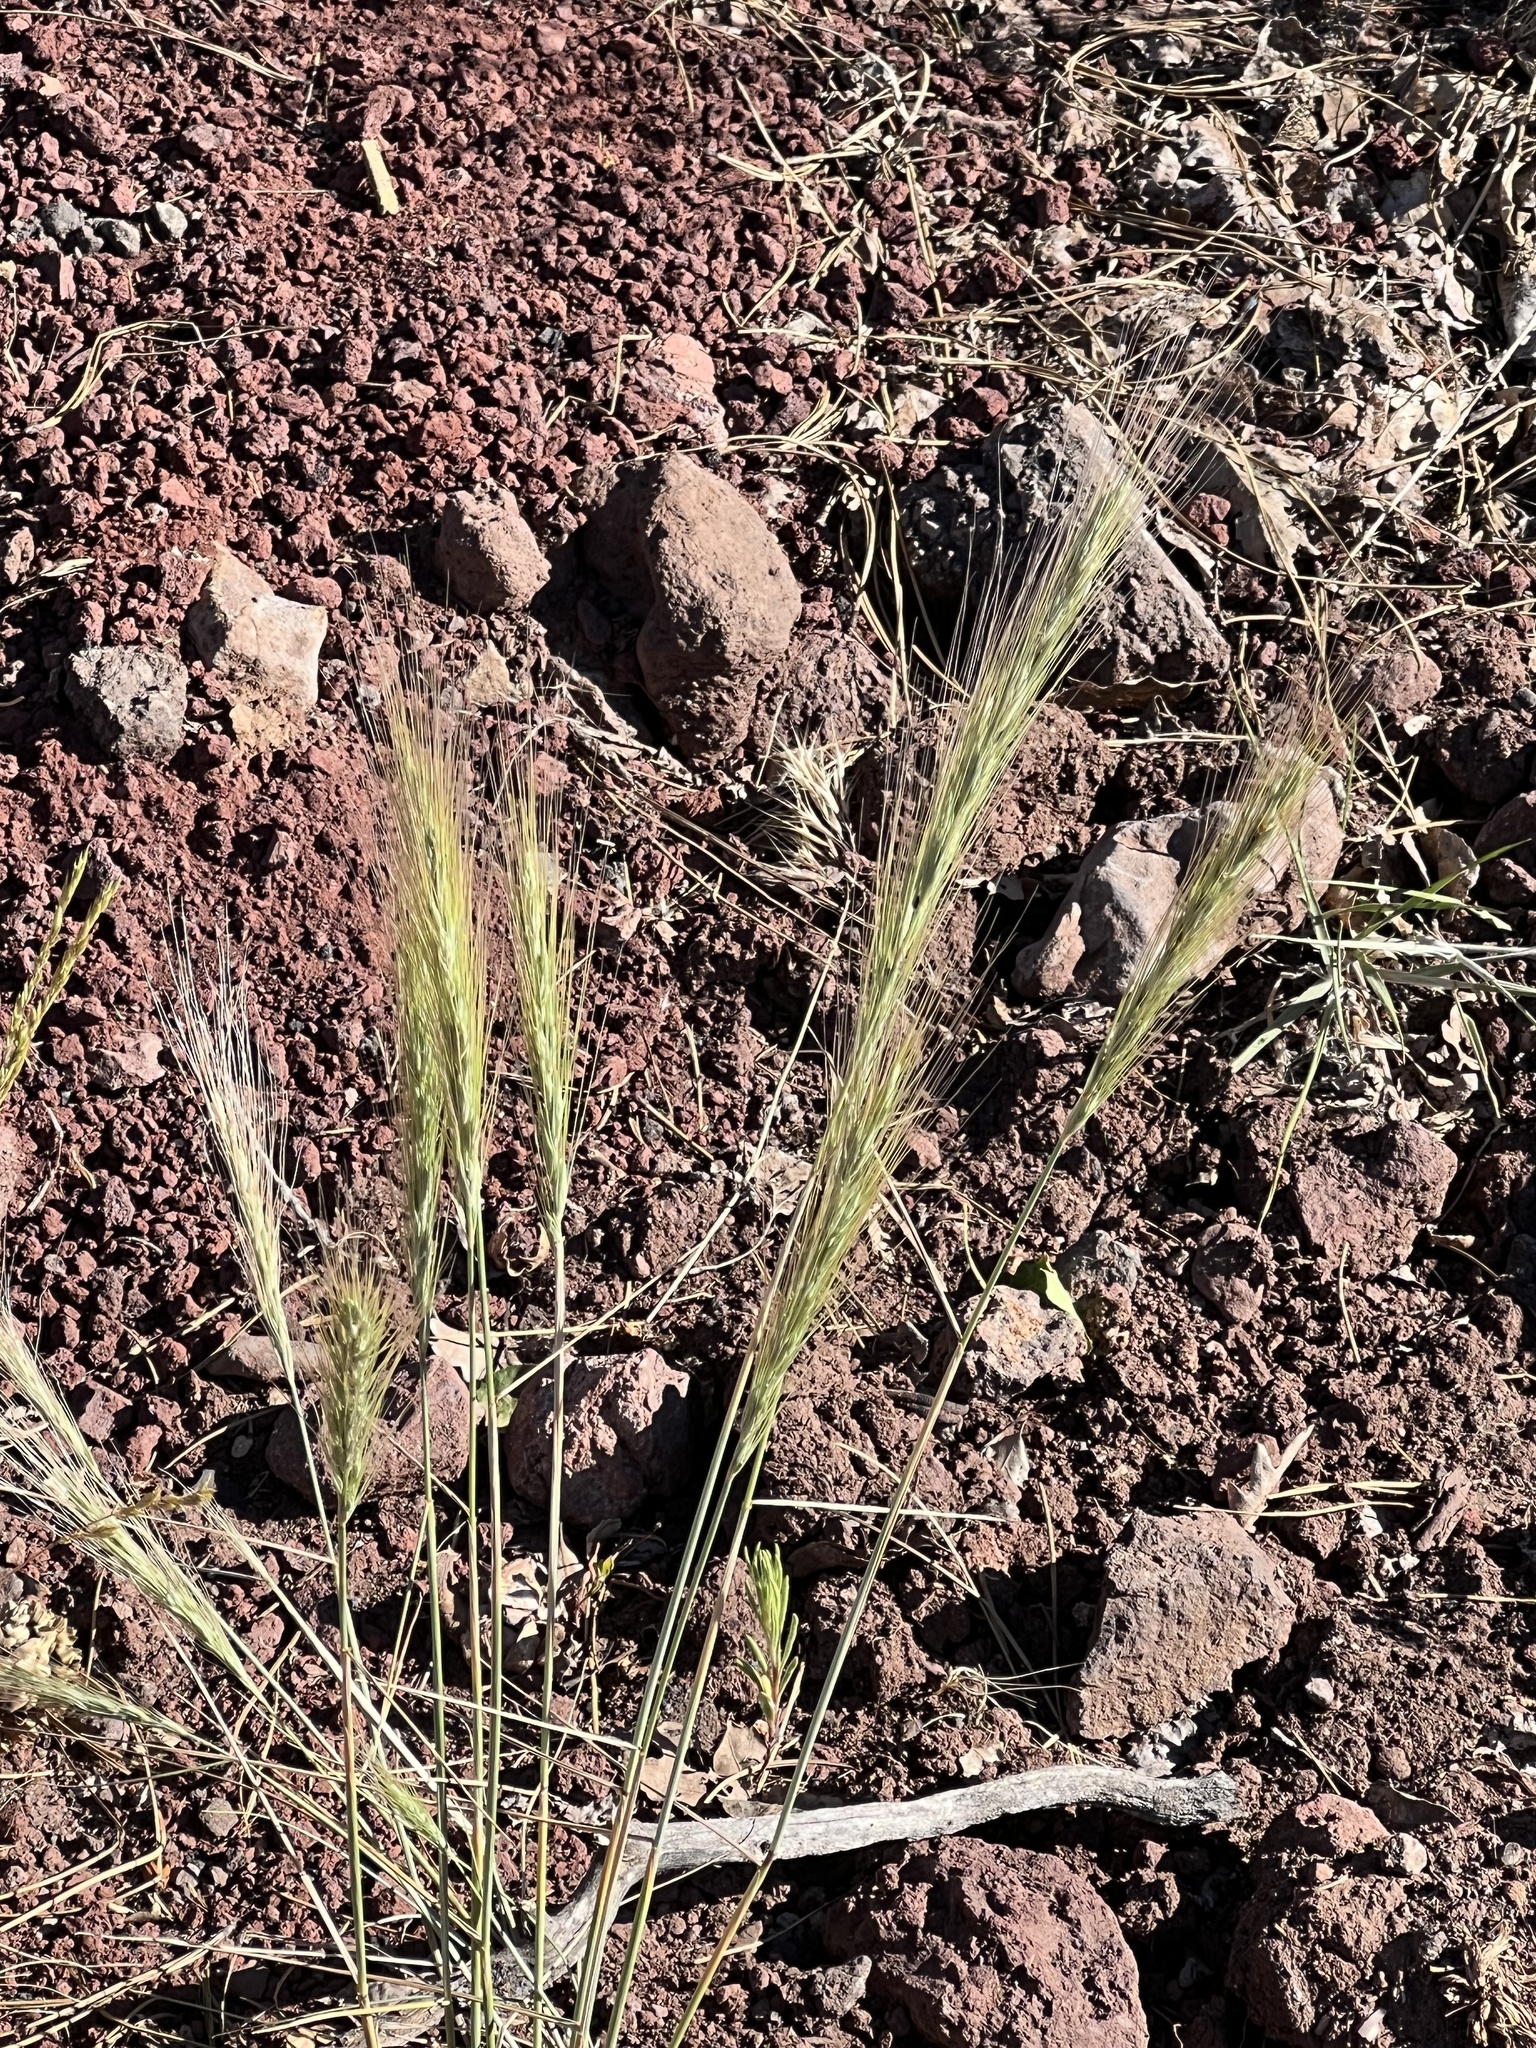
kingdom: Plantae
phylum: Tracheophyta
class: Liliopsida
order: Poales
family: Poaceae
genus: Elymus
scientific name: Elymus elymoides
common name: Bottlebrush squirreltail
